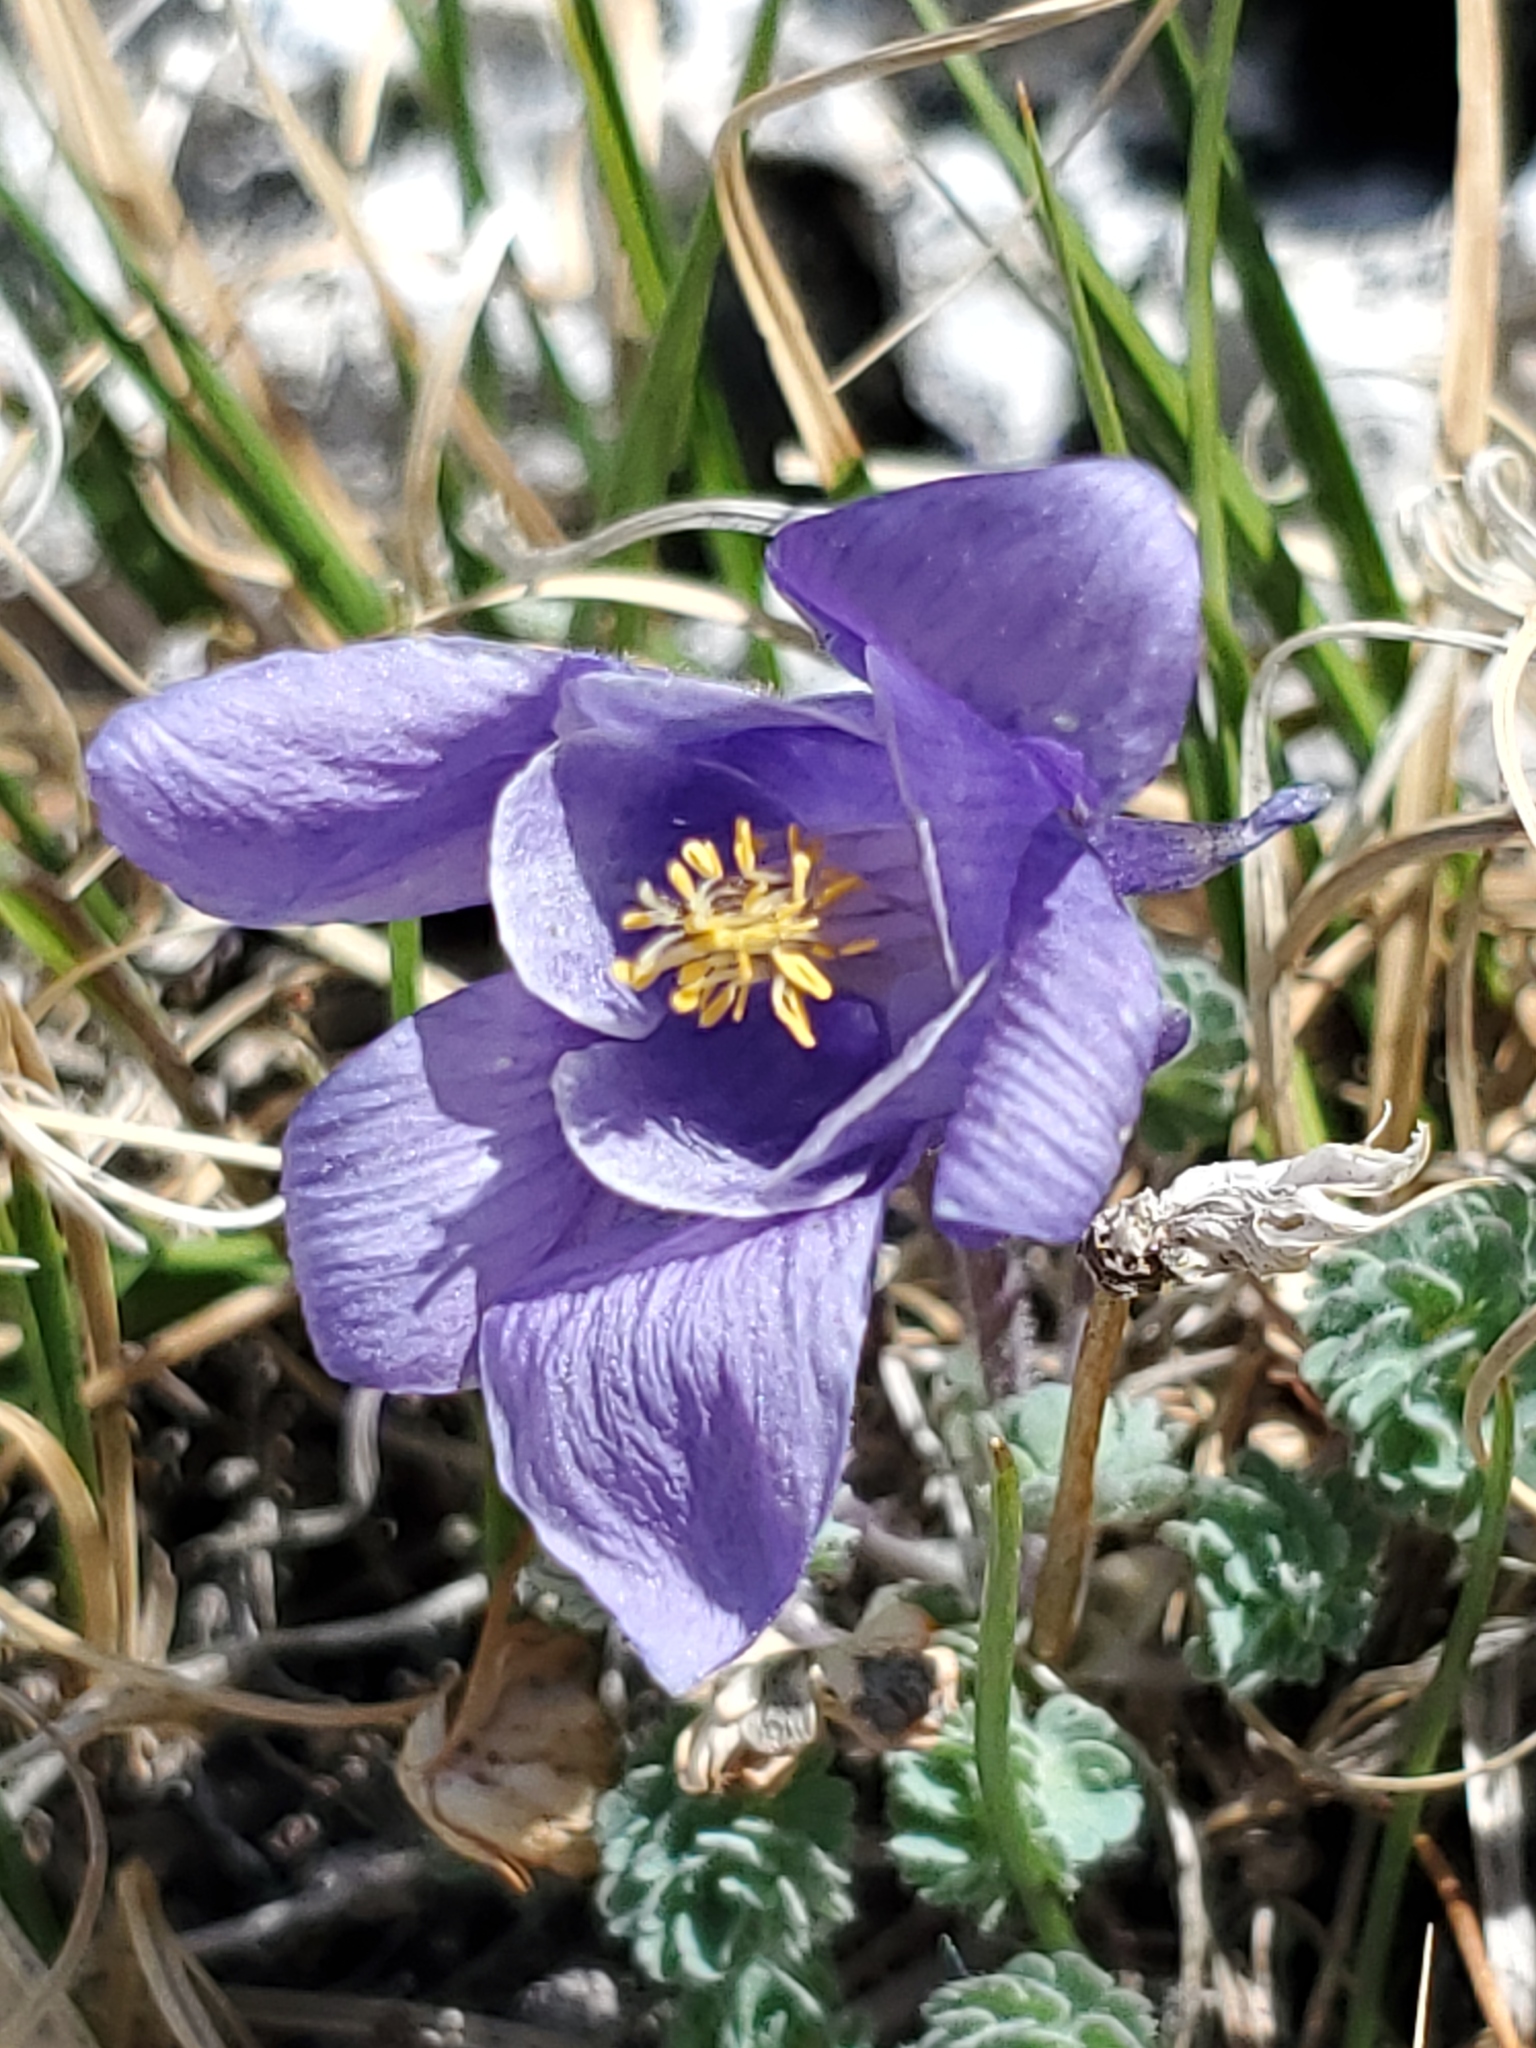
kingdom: Plantae
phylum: Tracheophyta
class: Magnoliopsida
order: Ranunculales
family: Ranunculaceae
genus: Aquilegia
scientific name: Aquilegia jonesii
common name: Jones' columbine
